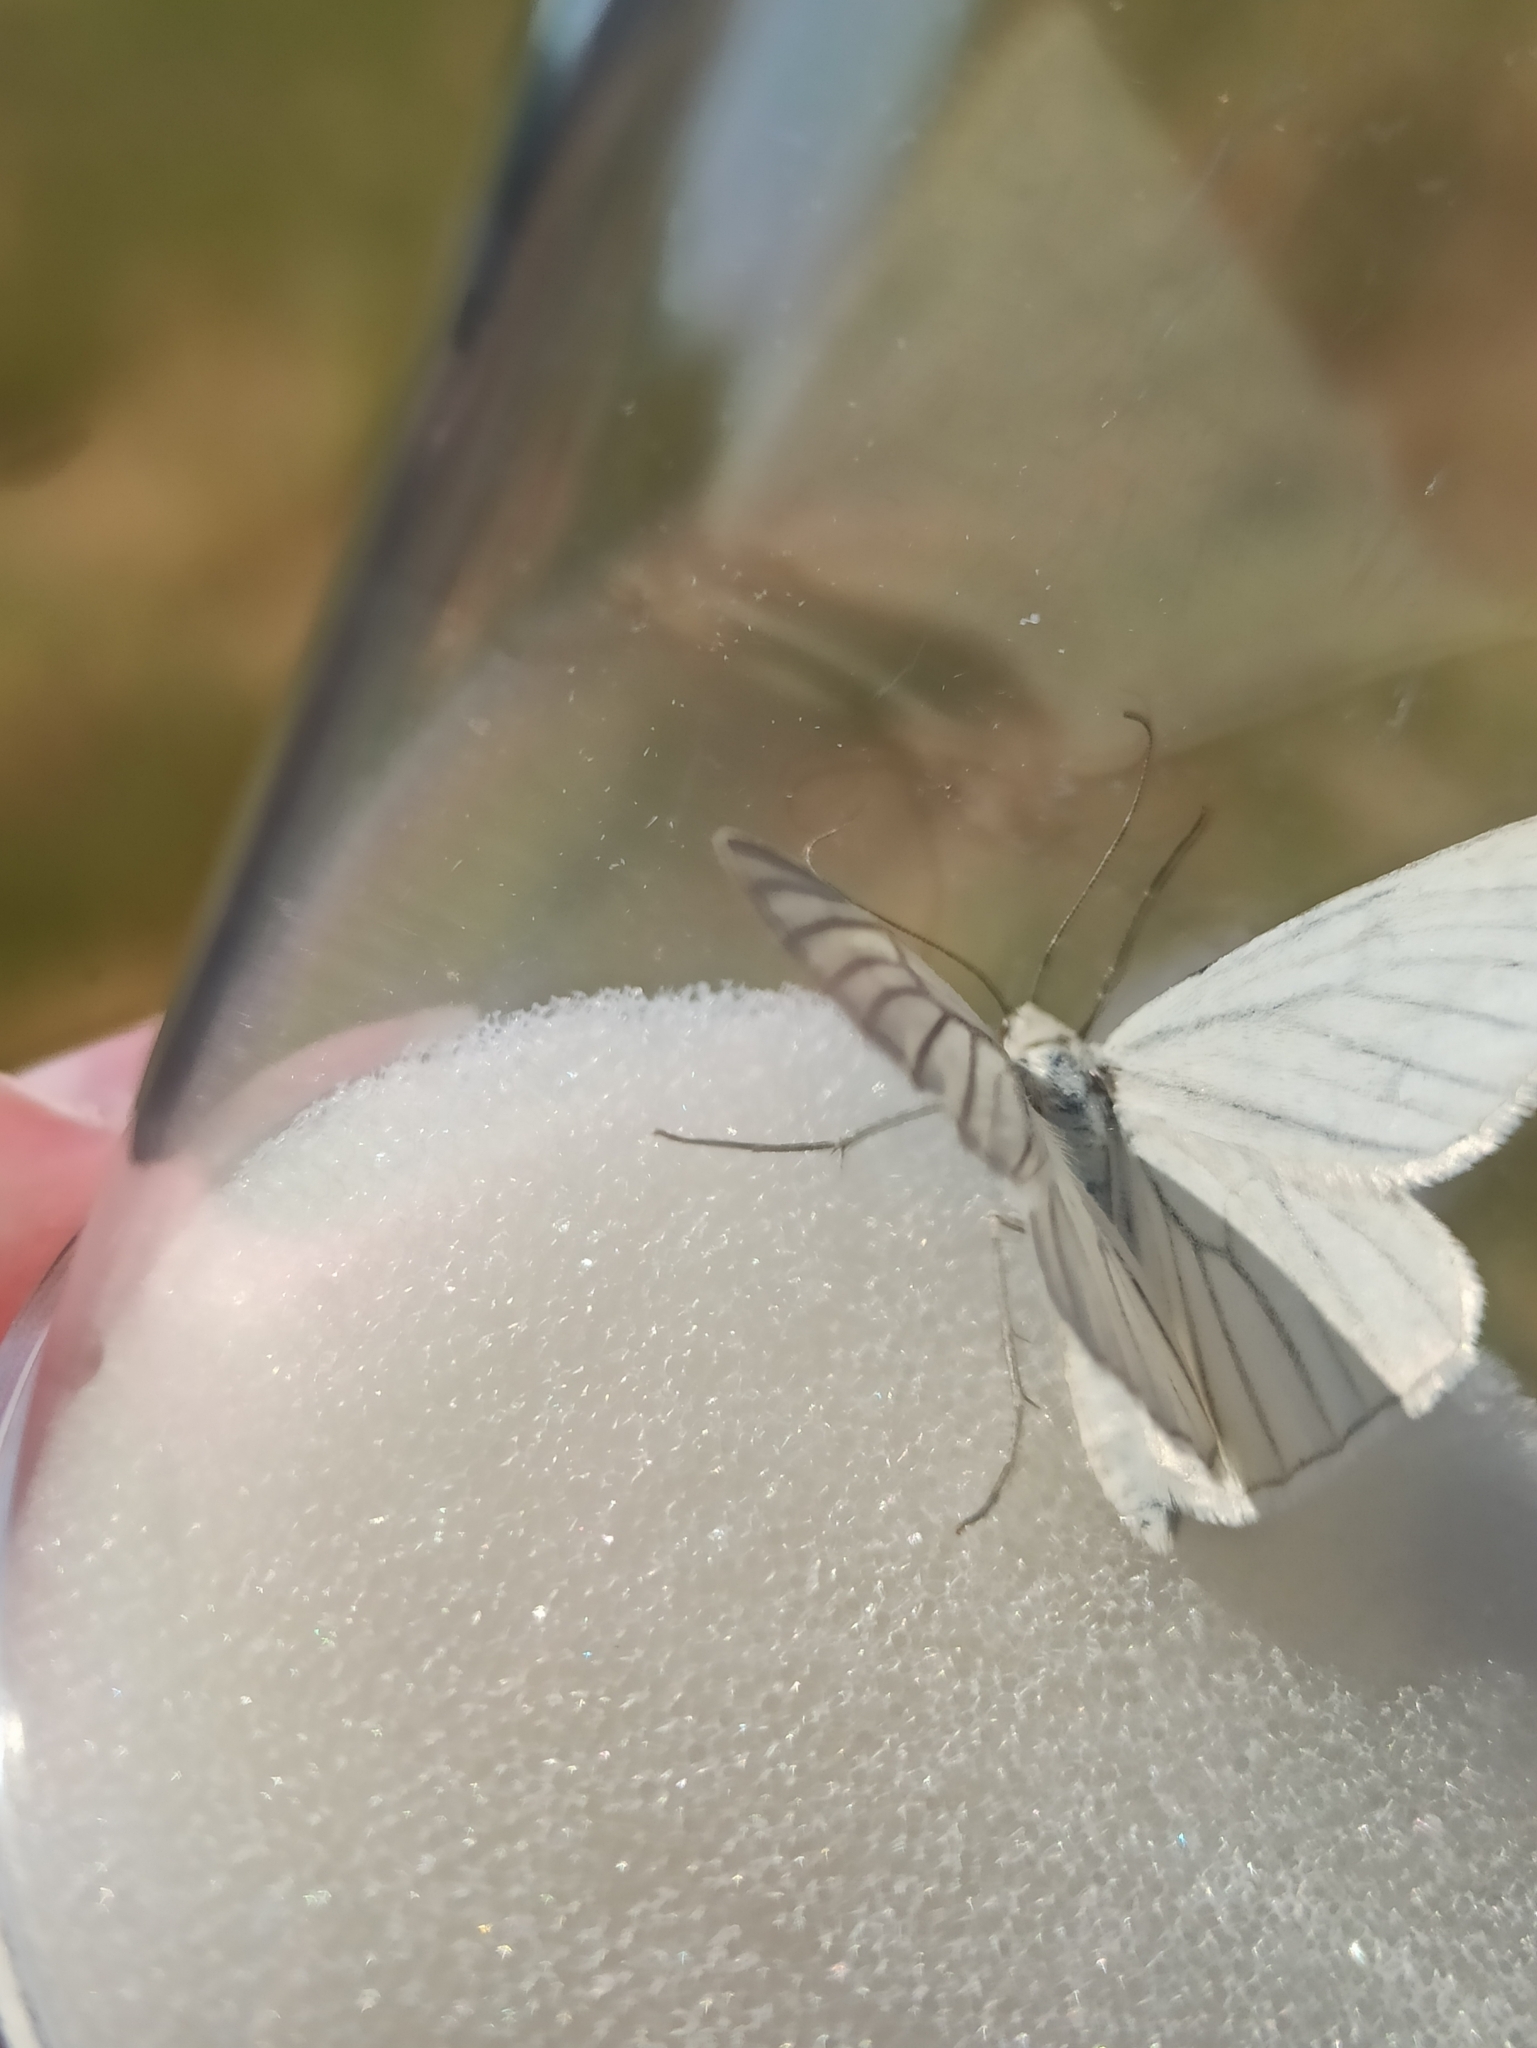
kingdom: Animalia
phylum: Arthropoda
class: Insecta
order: Lepidoptera
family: Geometridae
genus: Siona
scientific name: Siona lineata
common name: Black-veined moth
